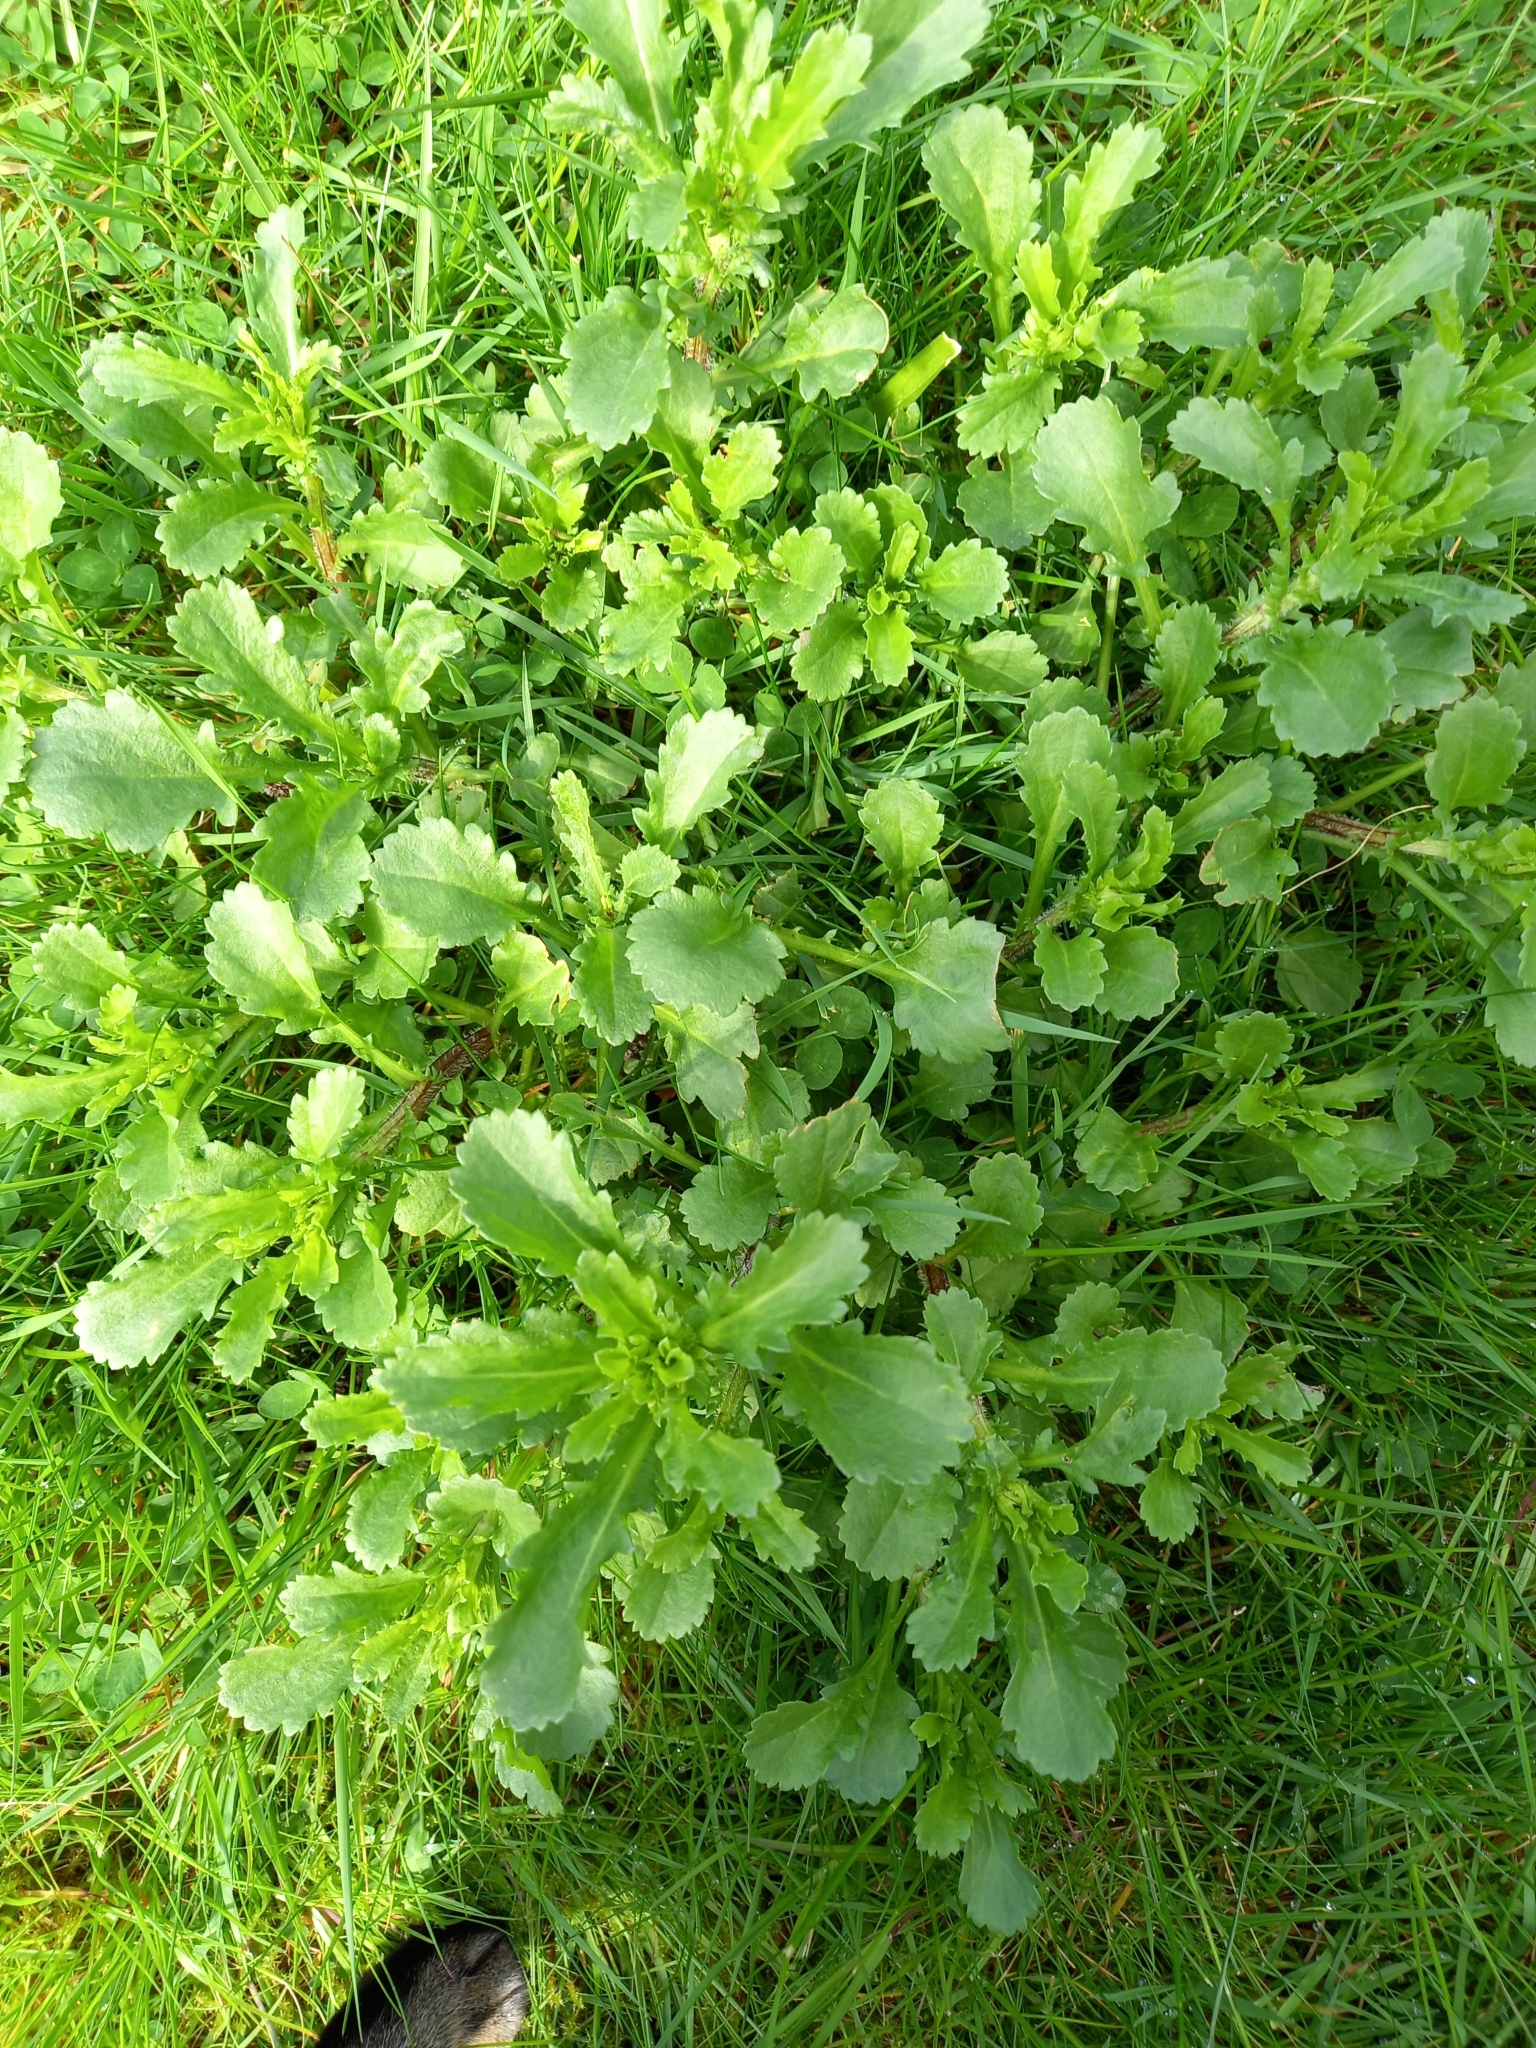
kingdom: Plantae
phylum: Tracheophyta
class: Magnoliopsida
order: Asterales
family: Asteraceae
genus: Leucanthemum
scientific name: Leucanthemum vulgare
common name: Oxeye daisy
